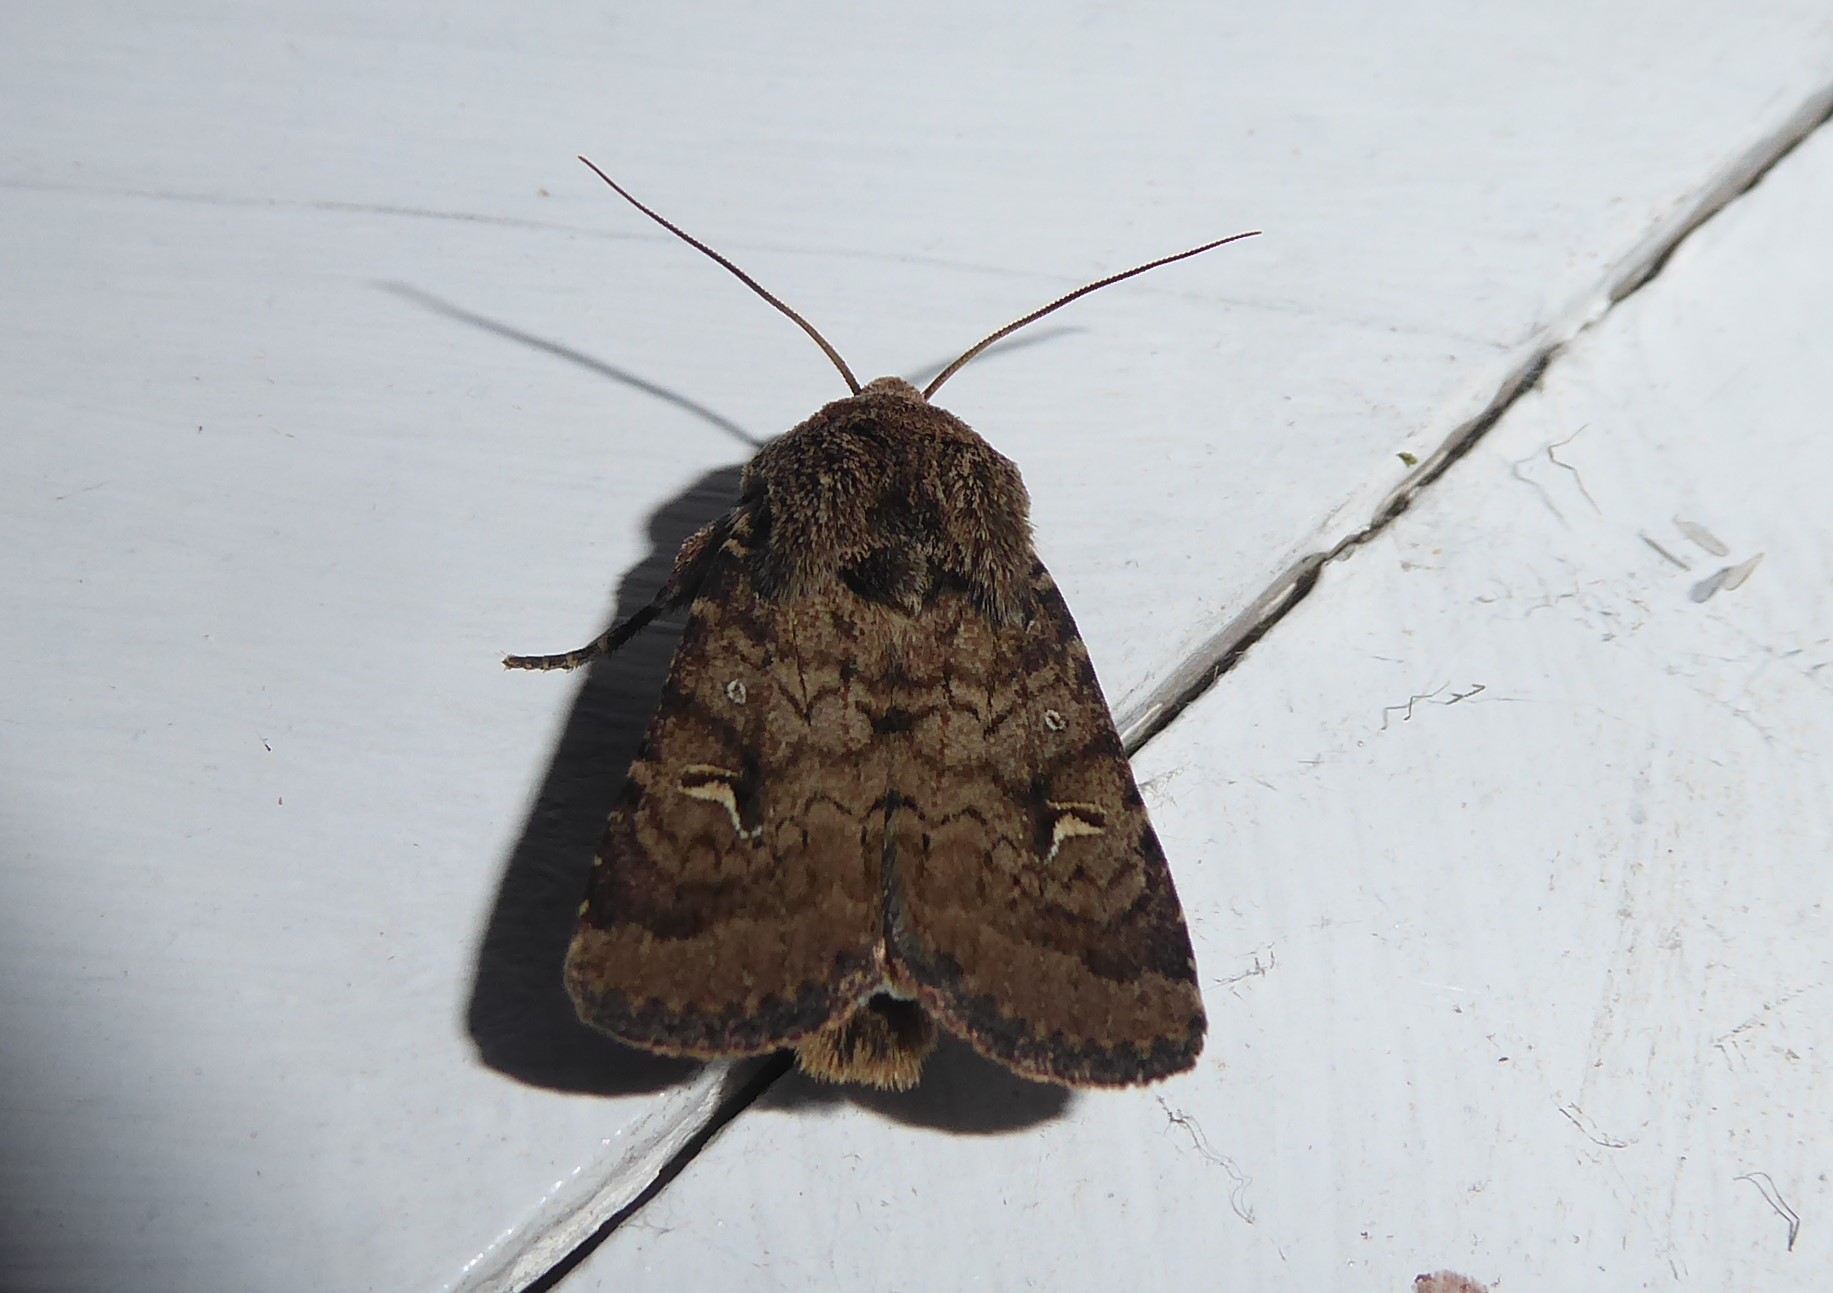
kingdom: Animalia
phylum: Arthropoda
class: Insecta
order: Lepidoptera
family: Noctuidae
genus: Proteuxoa
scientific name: Proteuxoa tetronycha
